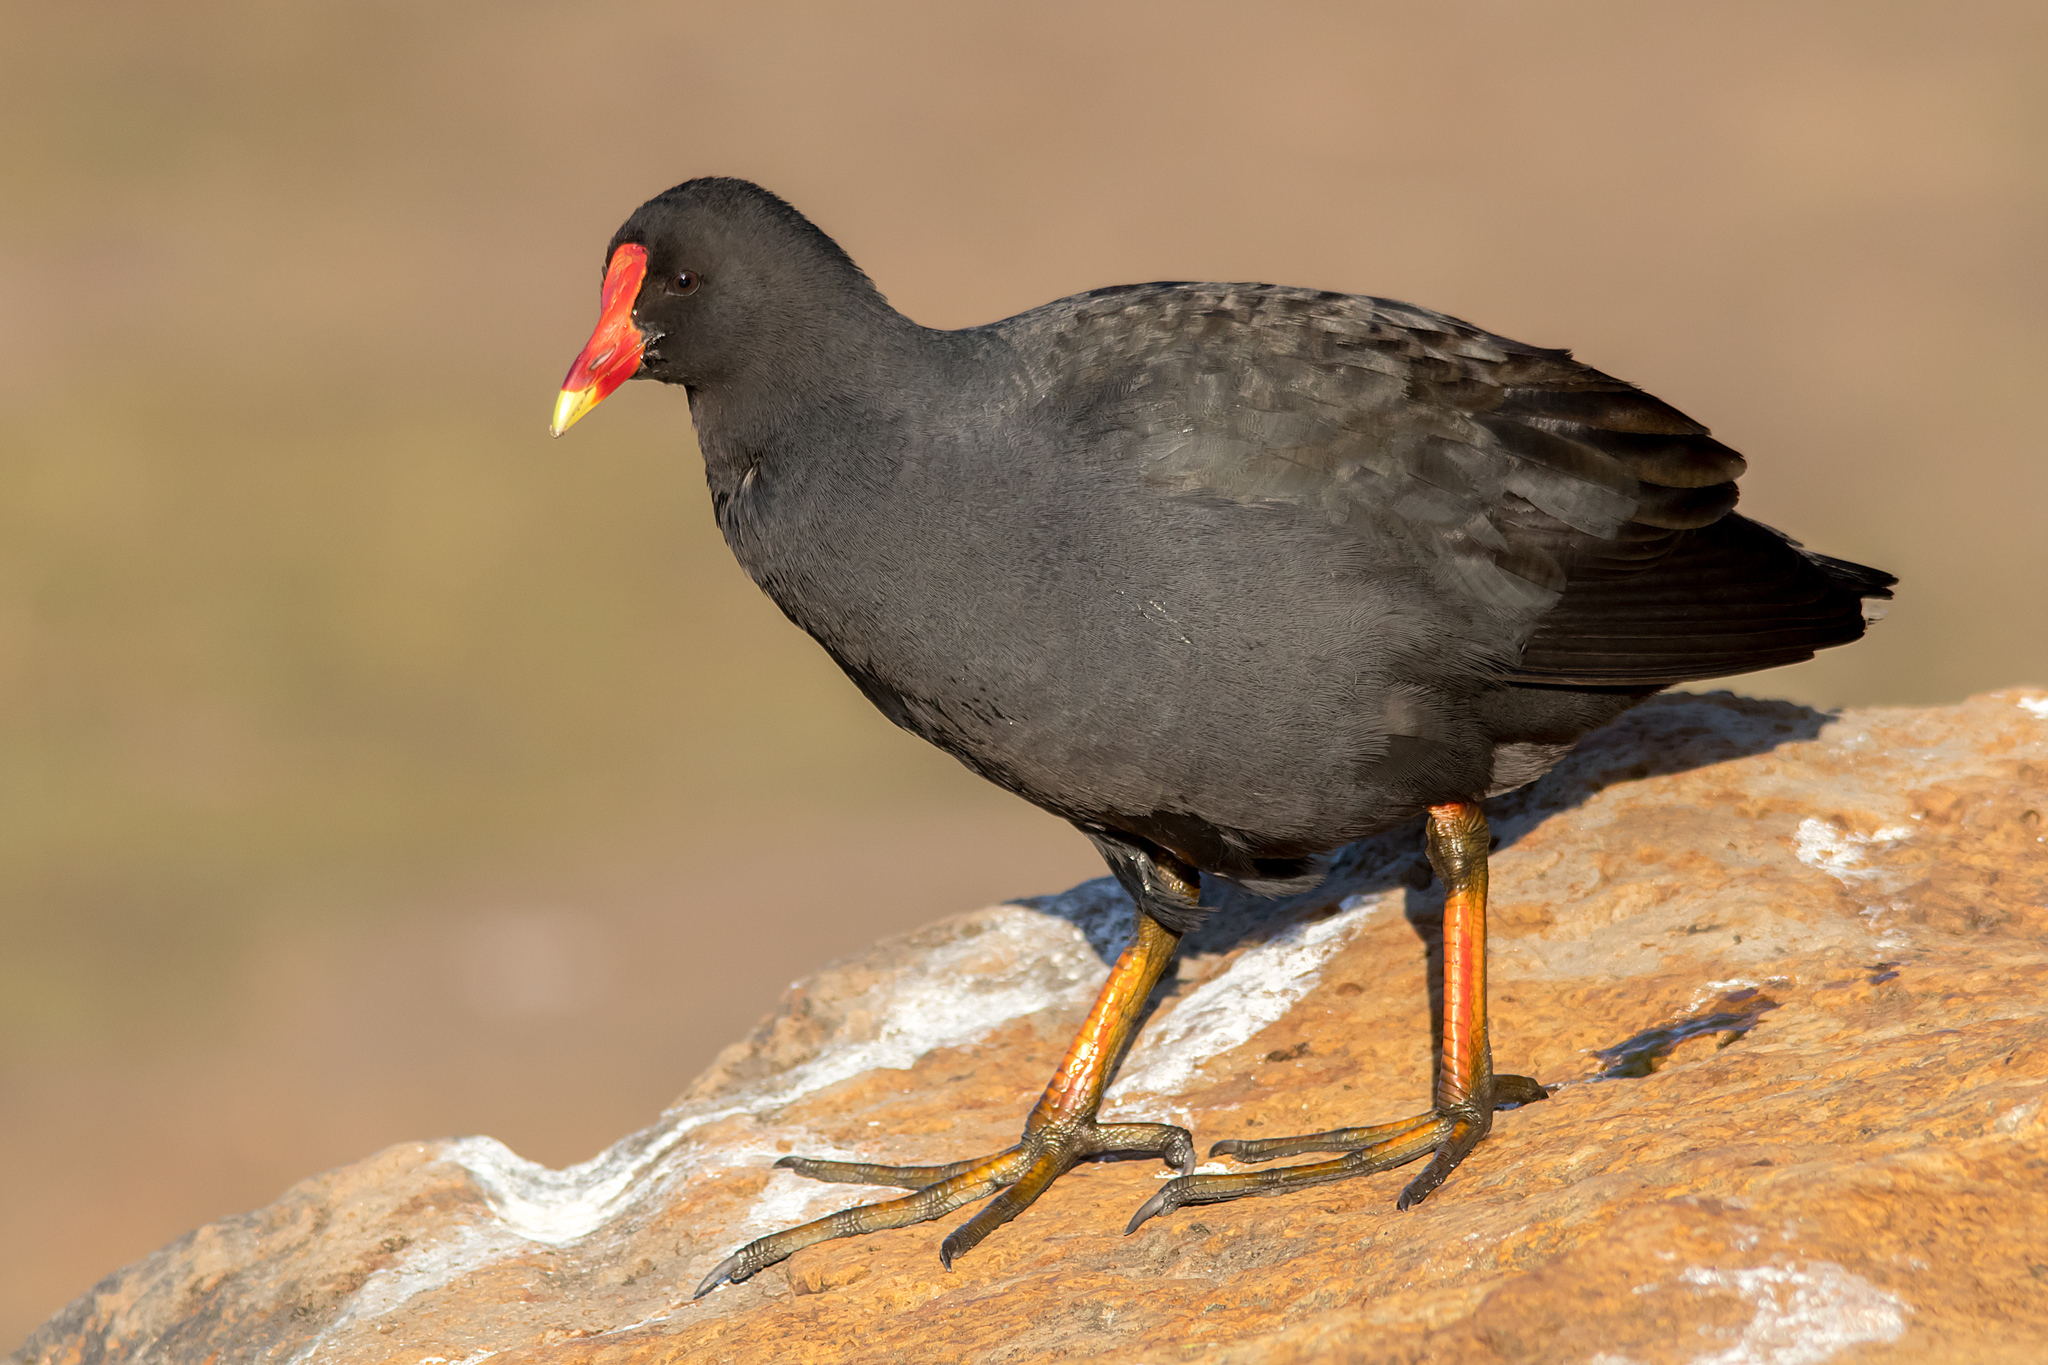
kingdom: Animalia
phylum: Chordata
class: Aves
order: Gruiformes
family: Rallidae
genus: Gallinula
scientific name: Gallinula tenebrosa
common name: Dusky moorhen
